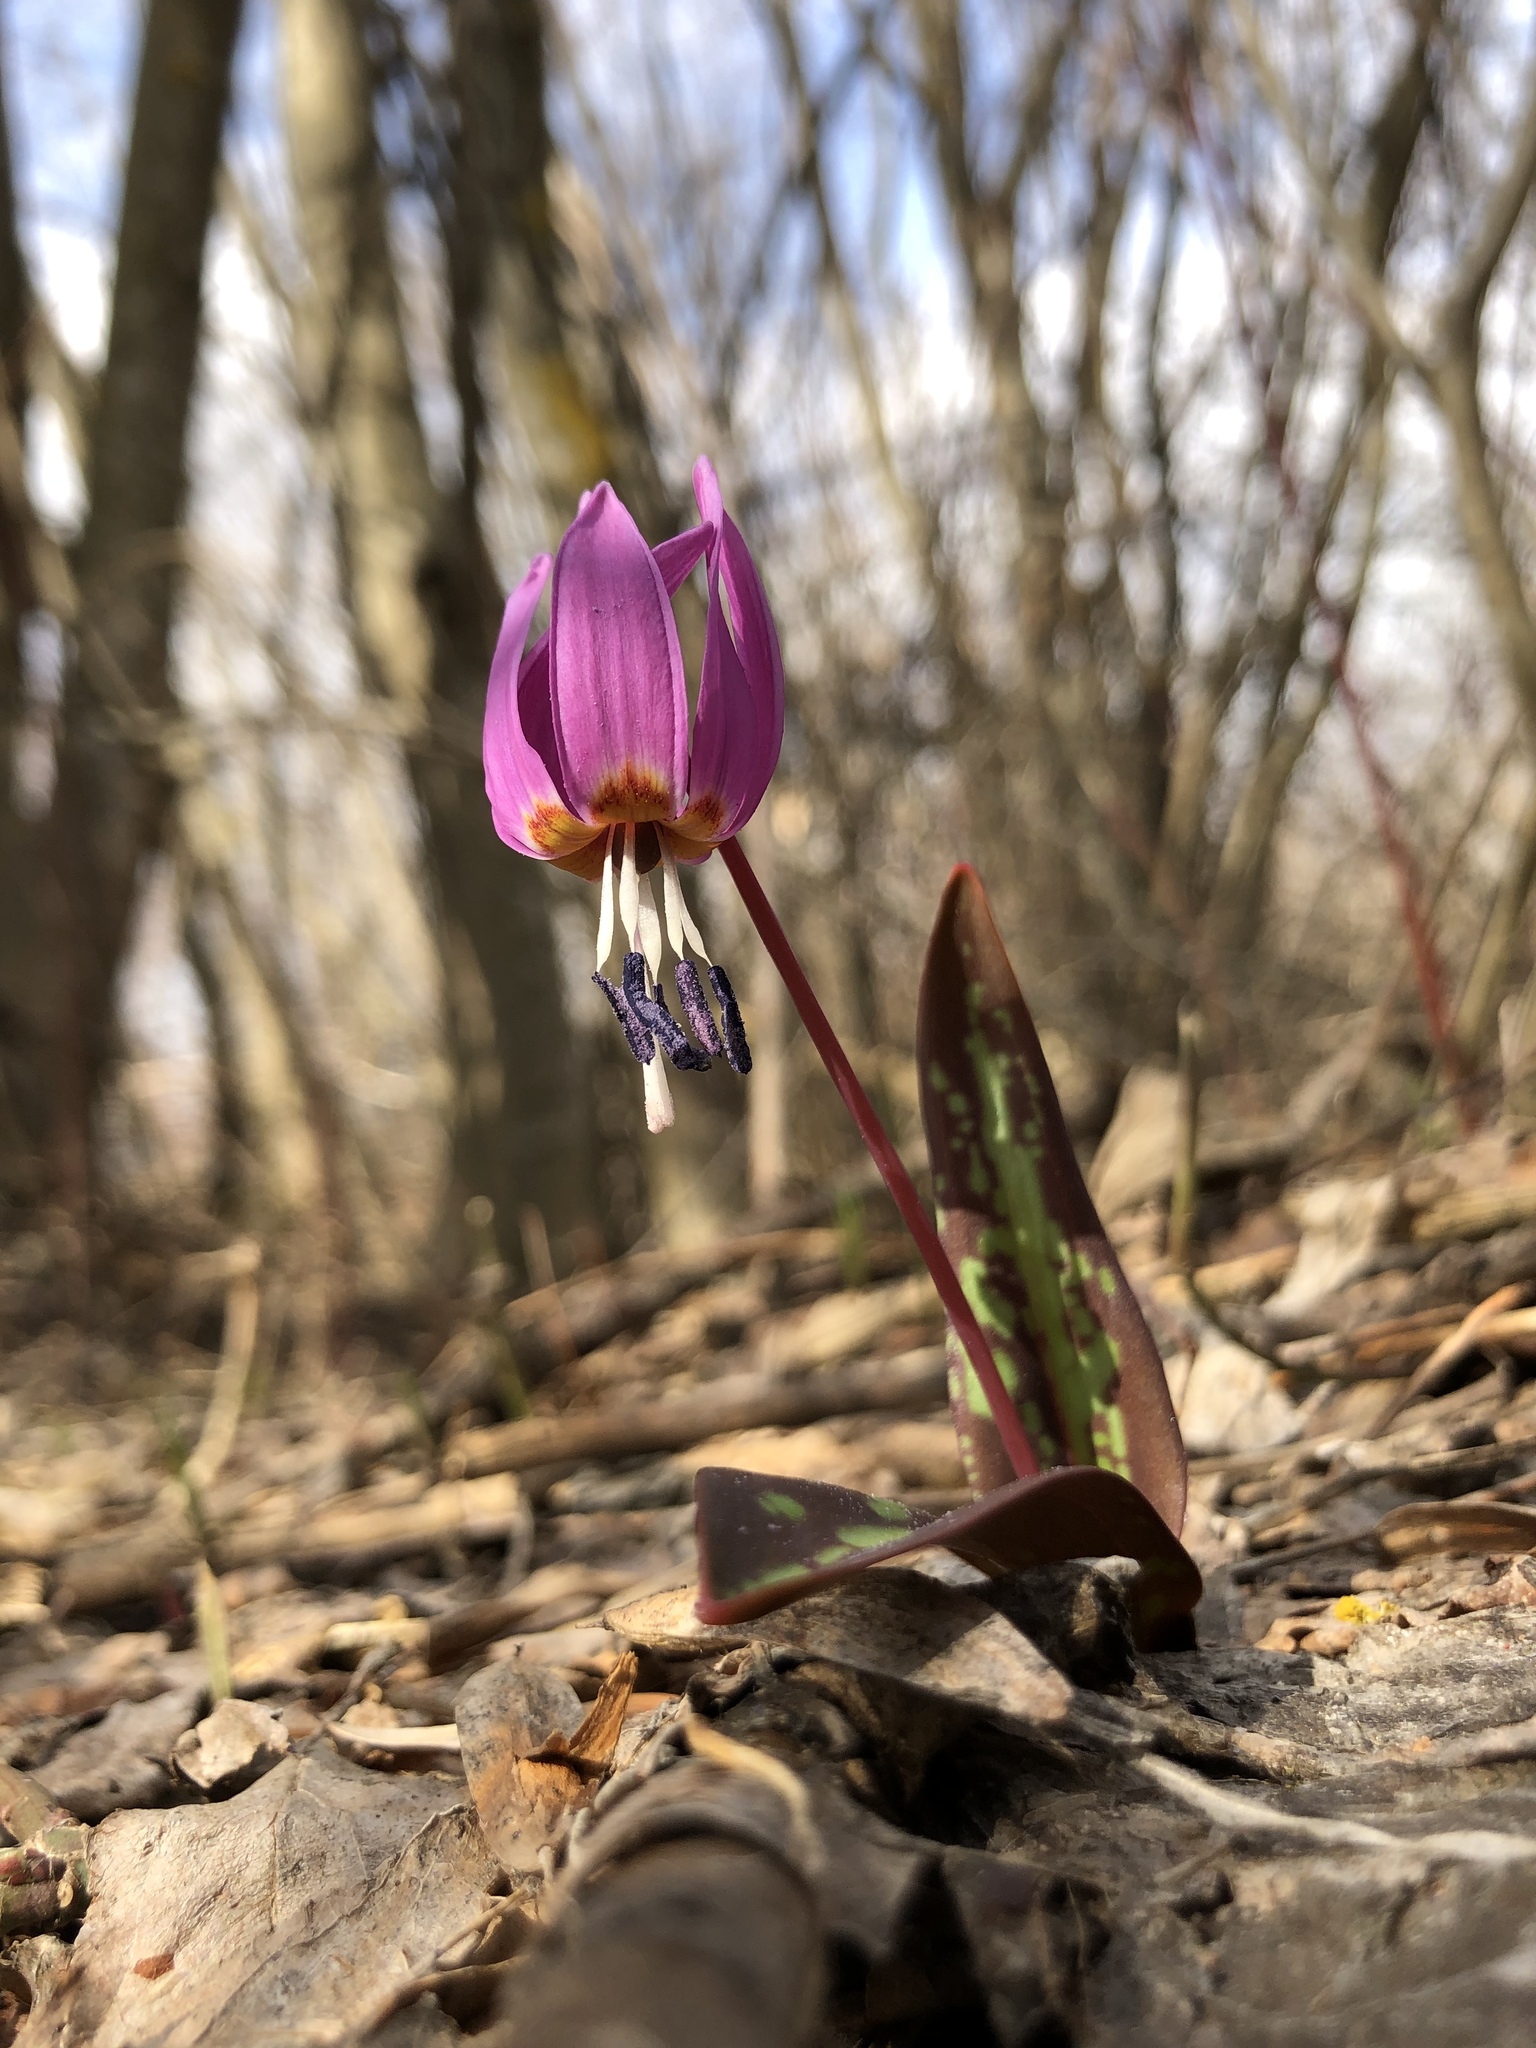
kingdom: Plantae
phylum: Tracheophyta
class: Liliopsida
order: Liliales
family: Liliaceae
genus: Erythronium
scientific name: Erythronium dens-canis
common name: Dog's-tooth-violet
